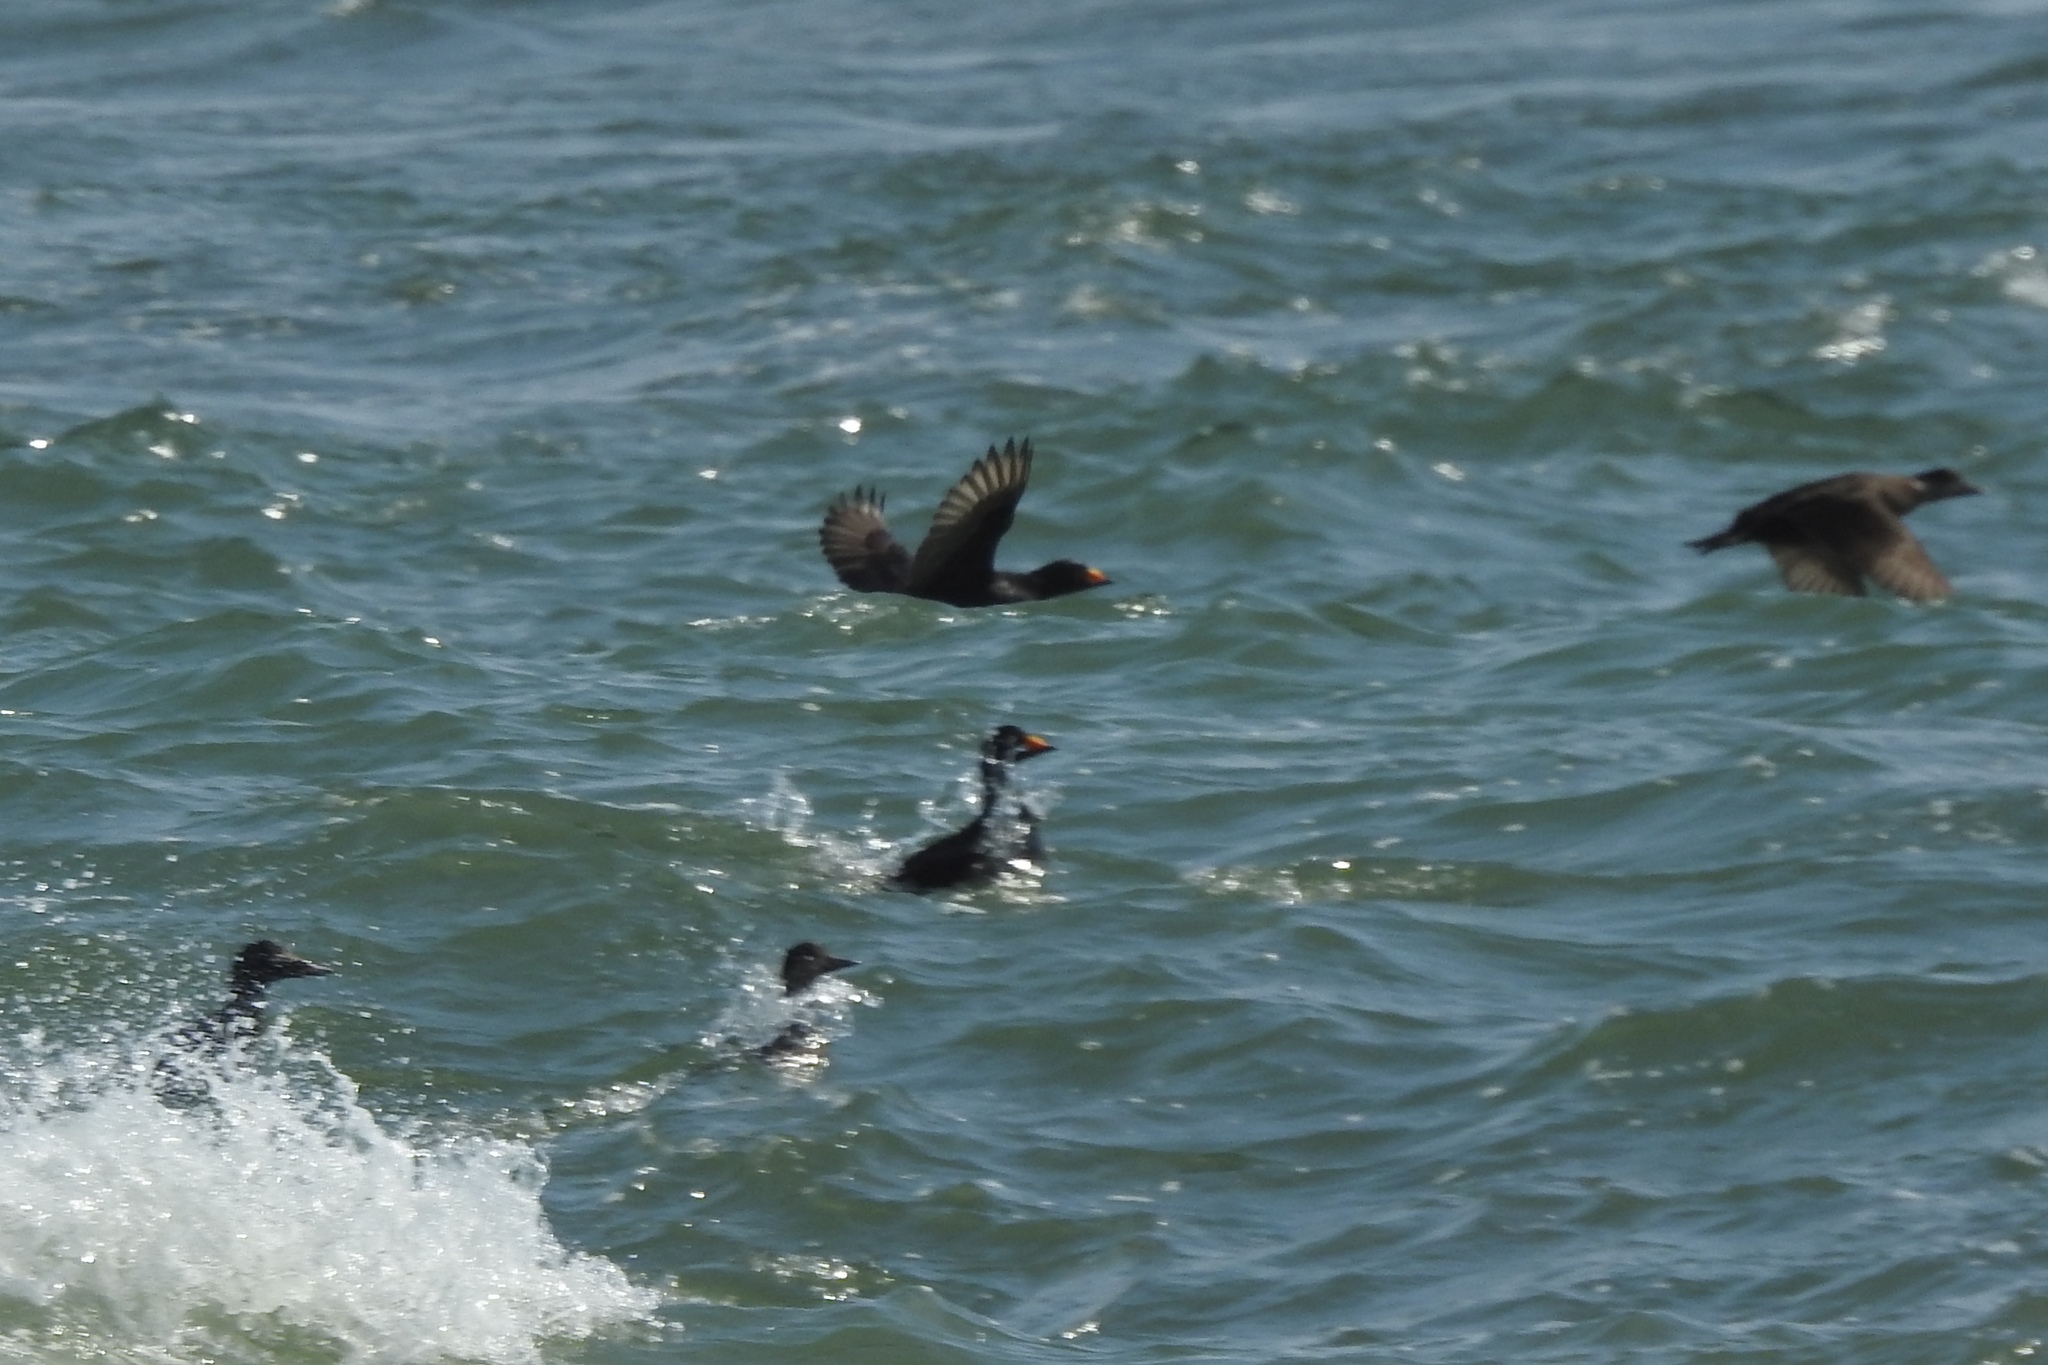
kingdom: Animalia
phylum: Chordata
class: Aves
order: Anseriformes
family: Anatidae
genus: Melanitta
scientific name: Melanitta americana
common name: Black scoter
